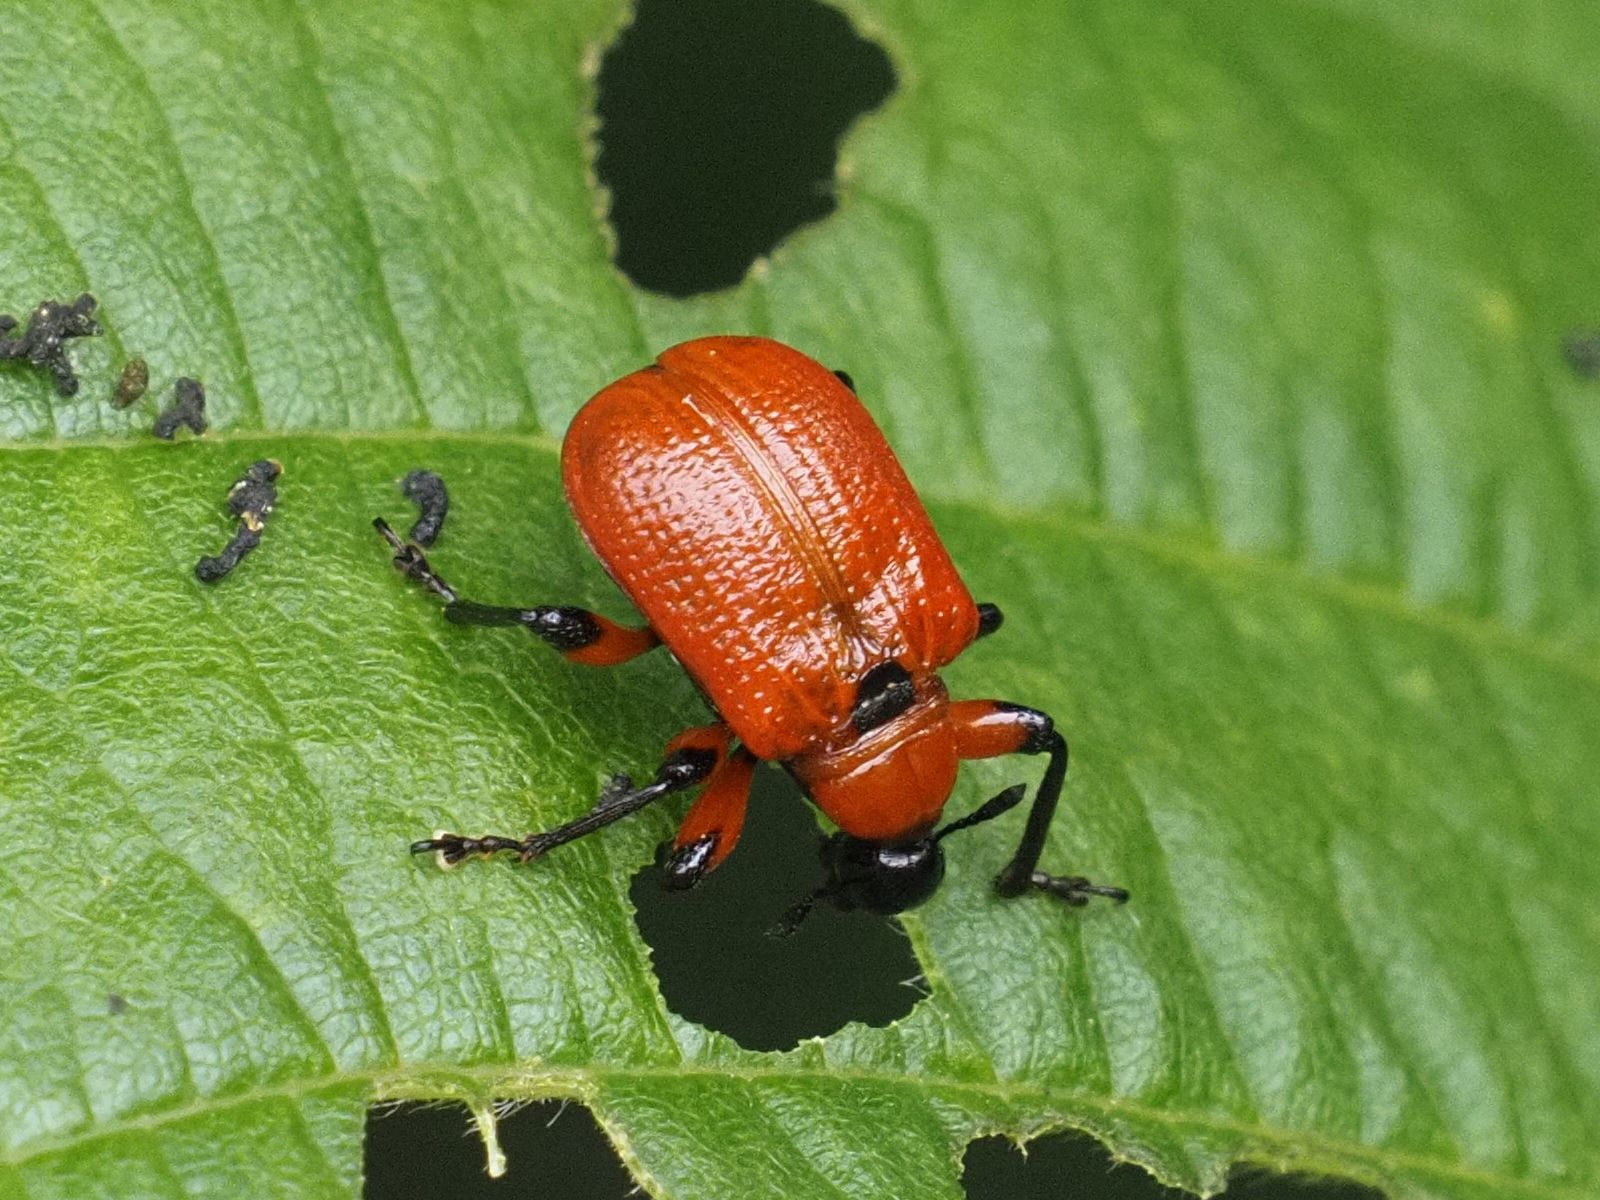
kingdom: Animalia
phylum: Arthropoda
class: Insecta
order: Coleoptera
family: Attelabidae
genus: Apoderus
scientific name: Apoderus coryli
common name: Hazel leaf roller
